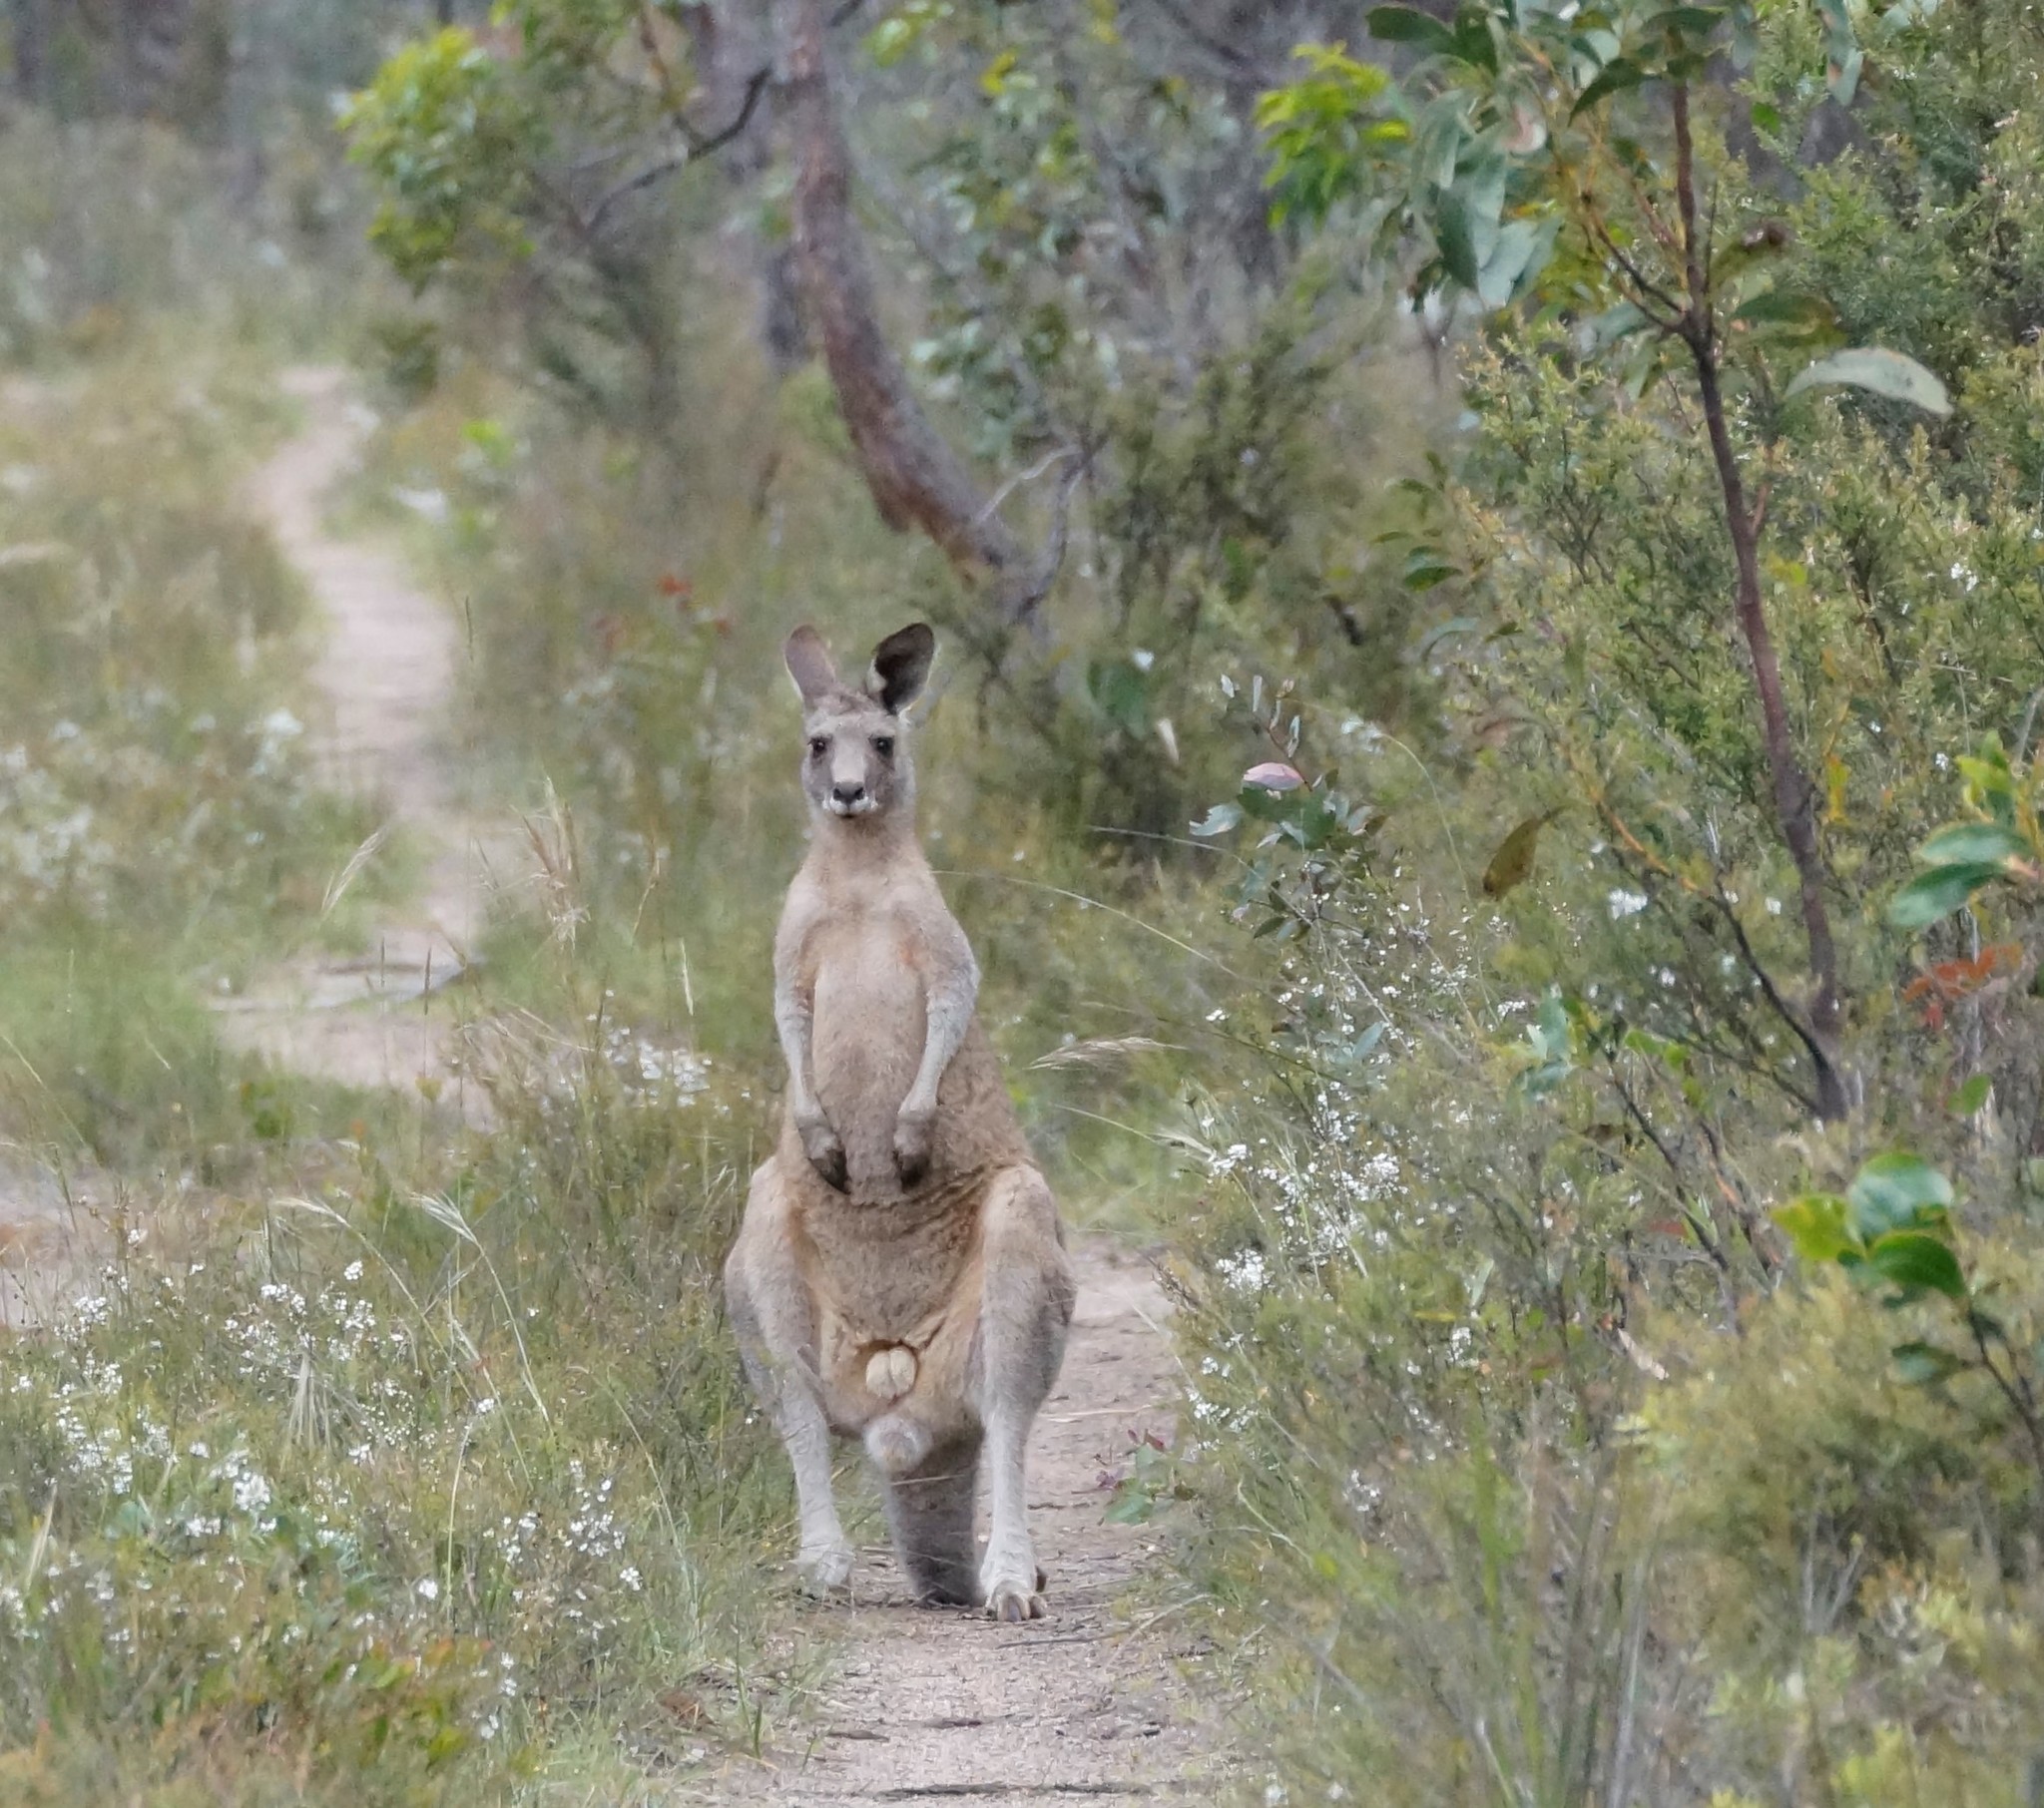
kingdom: Animalia
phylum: Chordata
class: Mammalia
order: Diprotodontia
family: Macropodidae
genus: Macropus
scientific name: Macropus giganteus
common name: Eastern grey kangaroo
